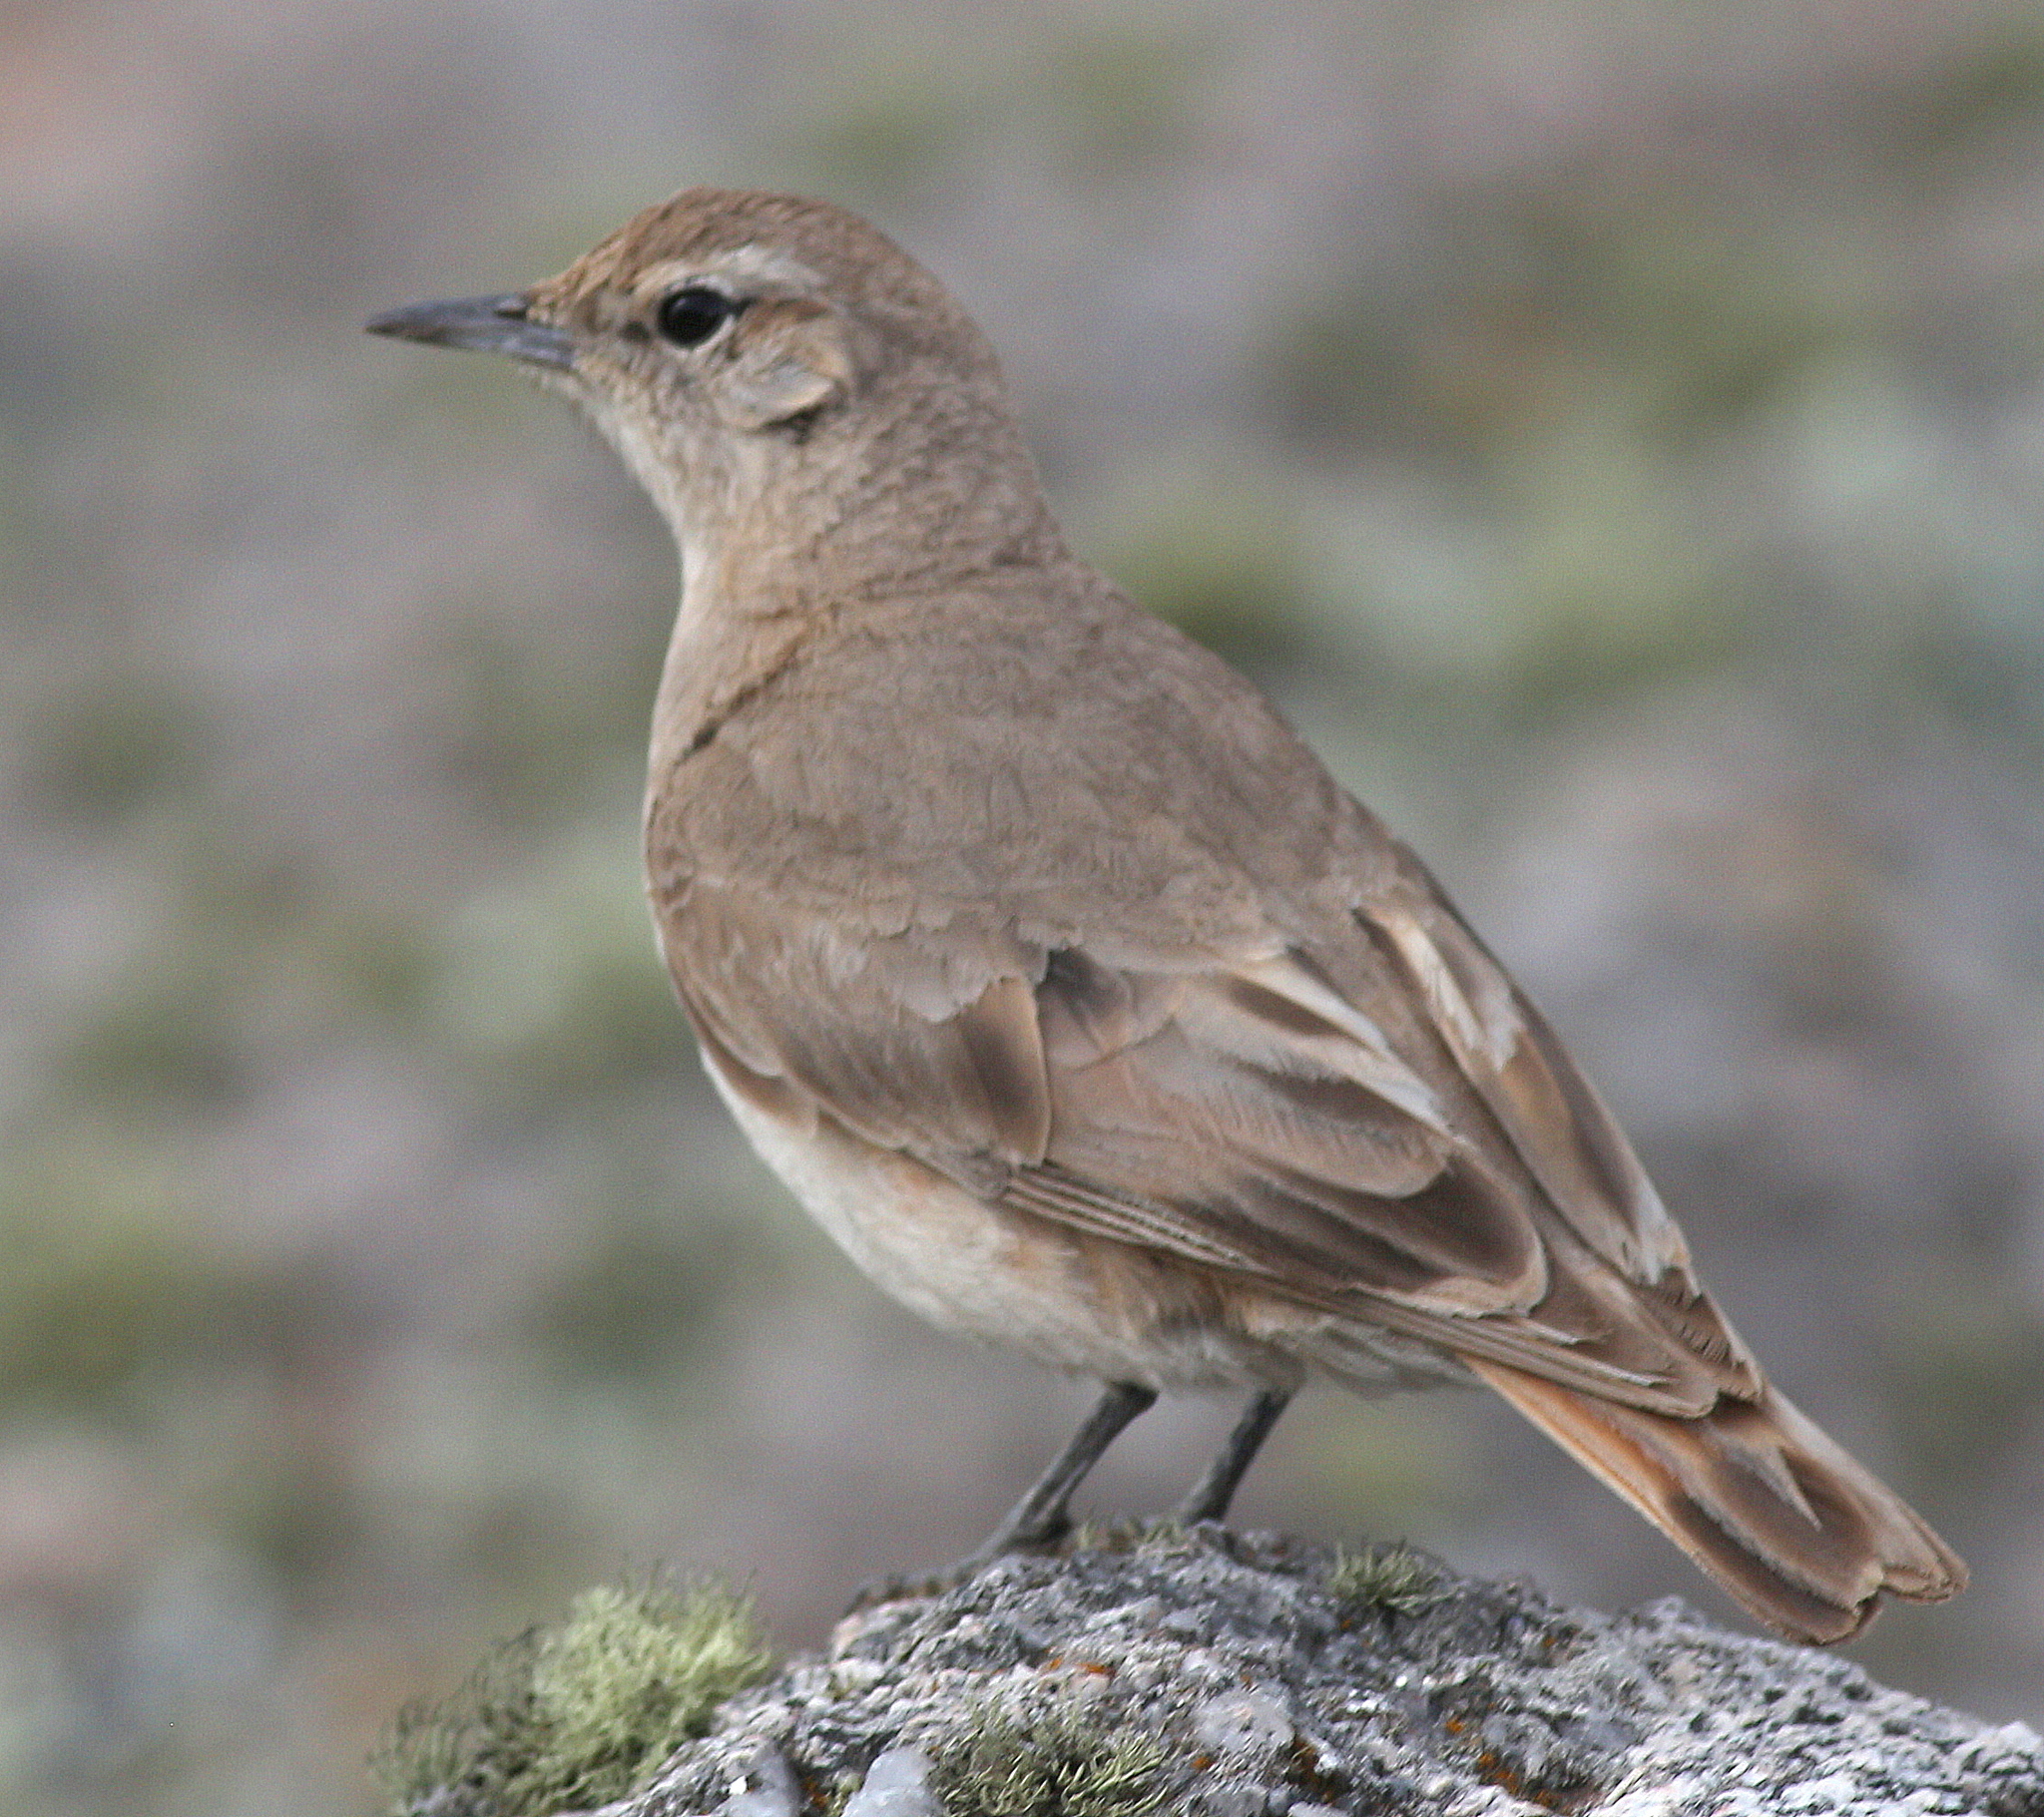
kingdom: Animalia
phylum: Chordata
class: Aves
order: Passeriformes
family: Furnariidae
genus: Geositta
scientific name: Geositta rufipennis
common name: Rufous-banded miner
